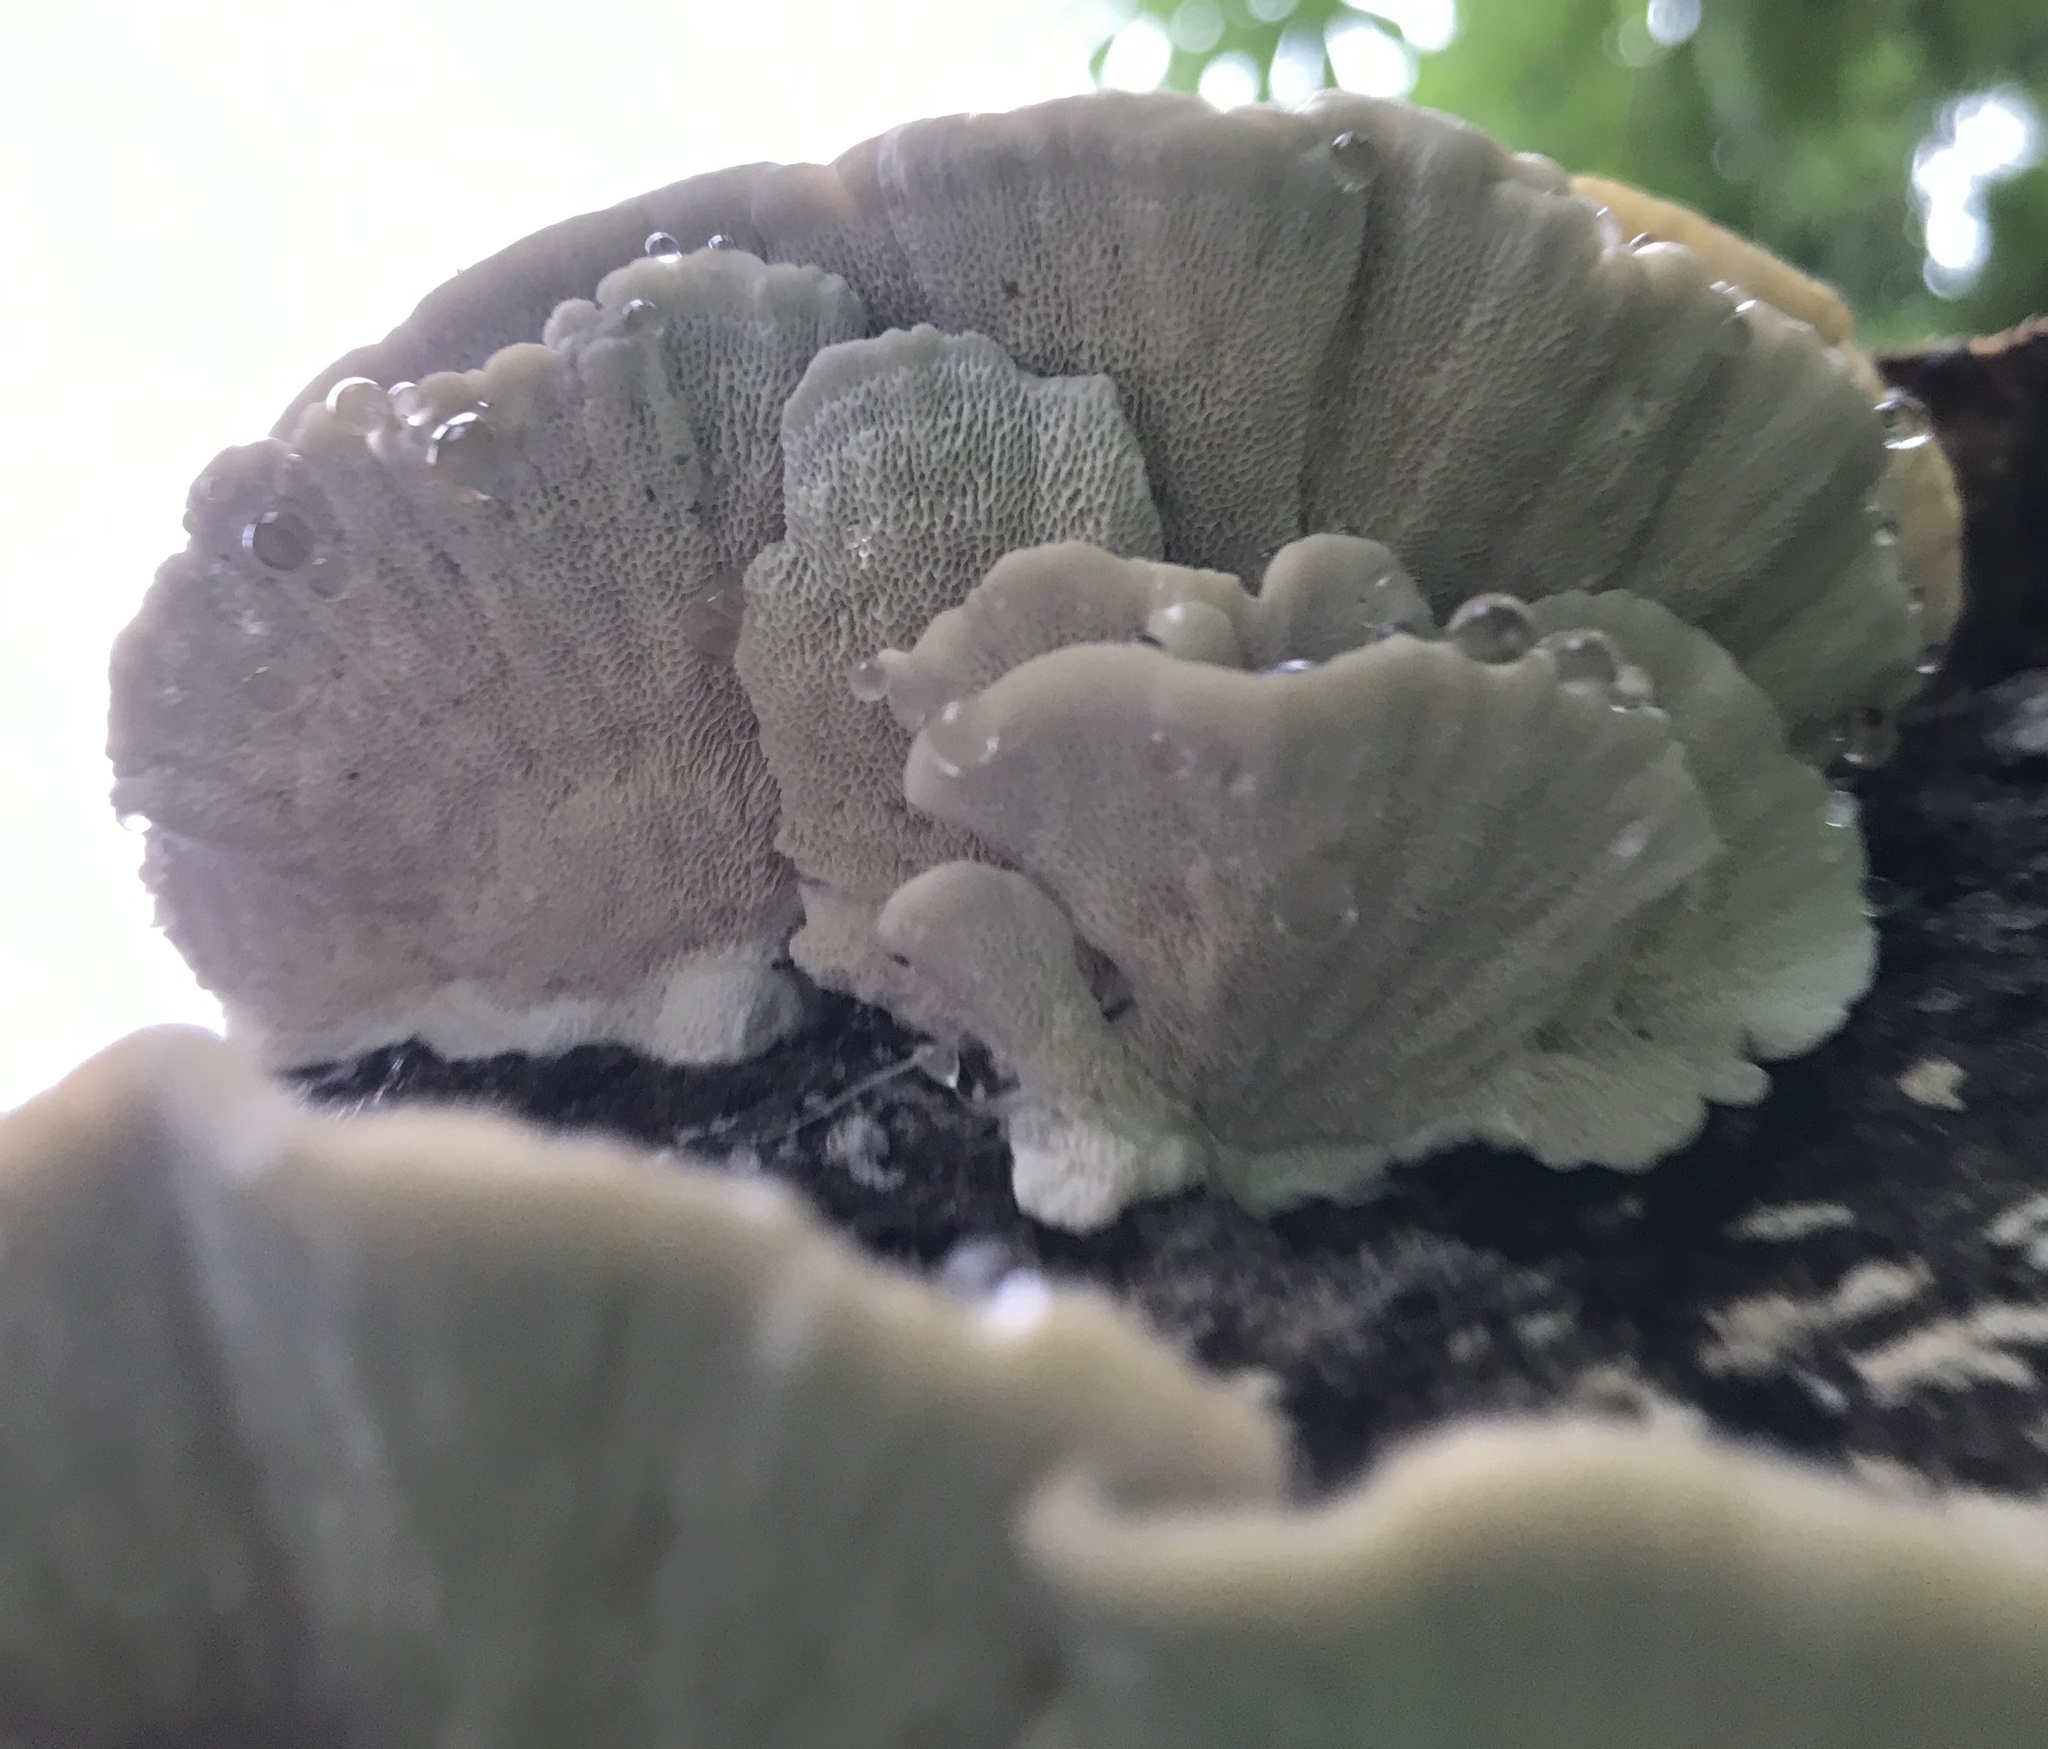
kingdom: Fungi
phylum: Basidiomycota
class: Agaricomycetes
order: Polyporales
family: Polyporaceae
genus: Cubamyces
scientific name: Cubamyces menziesii
